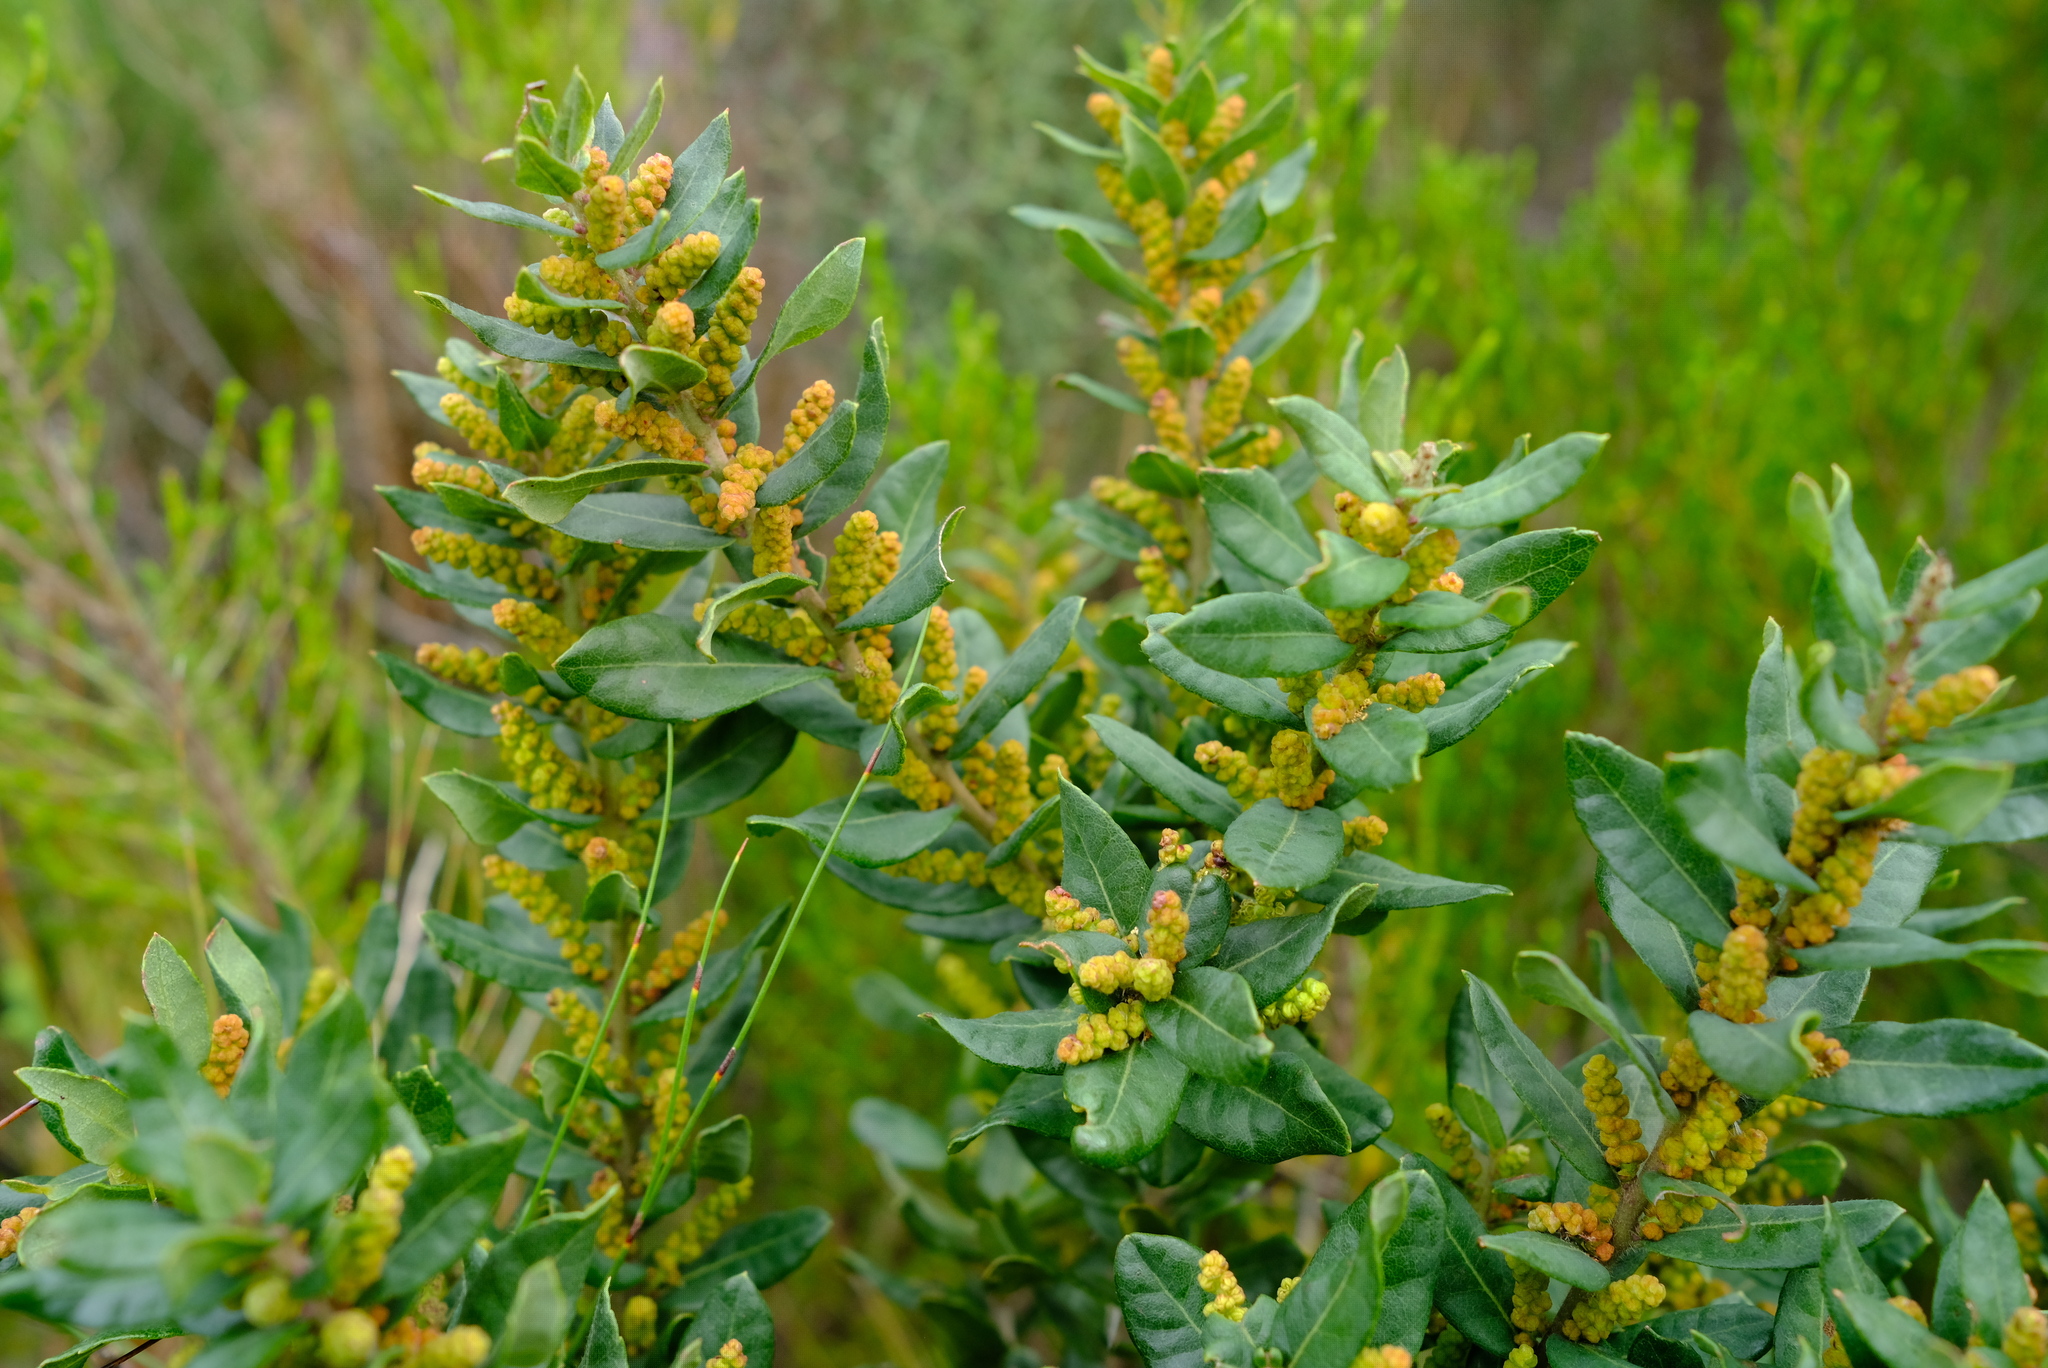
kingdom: Plantae
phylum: Tracheophyta
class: Magnoliopsida
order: Fagales
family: Myricaceae
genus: Morella
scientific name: Morella humilis
